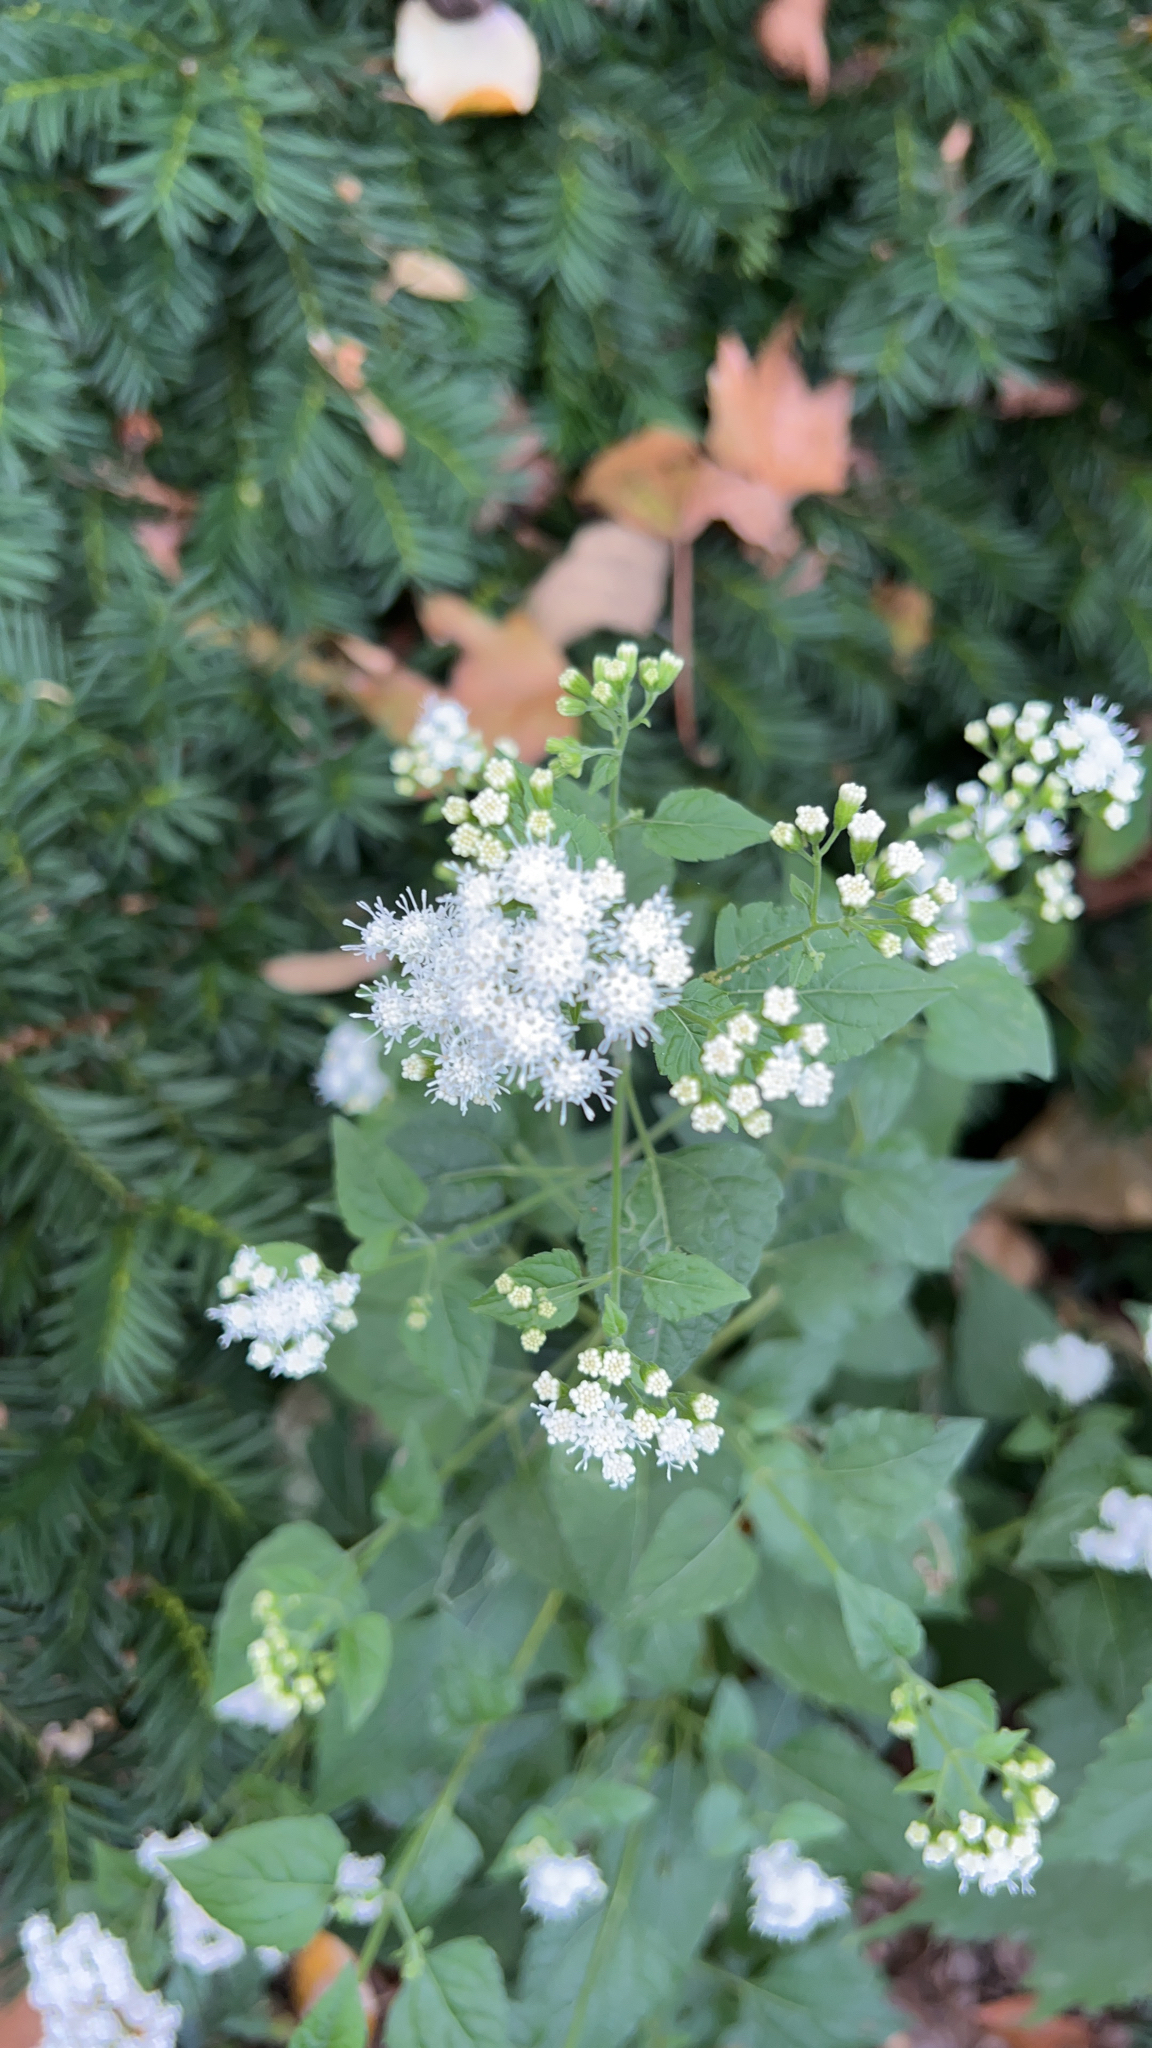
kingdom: Plantae
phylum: Tracheophyta
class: Magnoliopsida
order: Asterales
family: Asteraceae
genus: Ageratina
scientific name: Ageratina altissima
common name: White snakeroot
